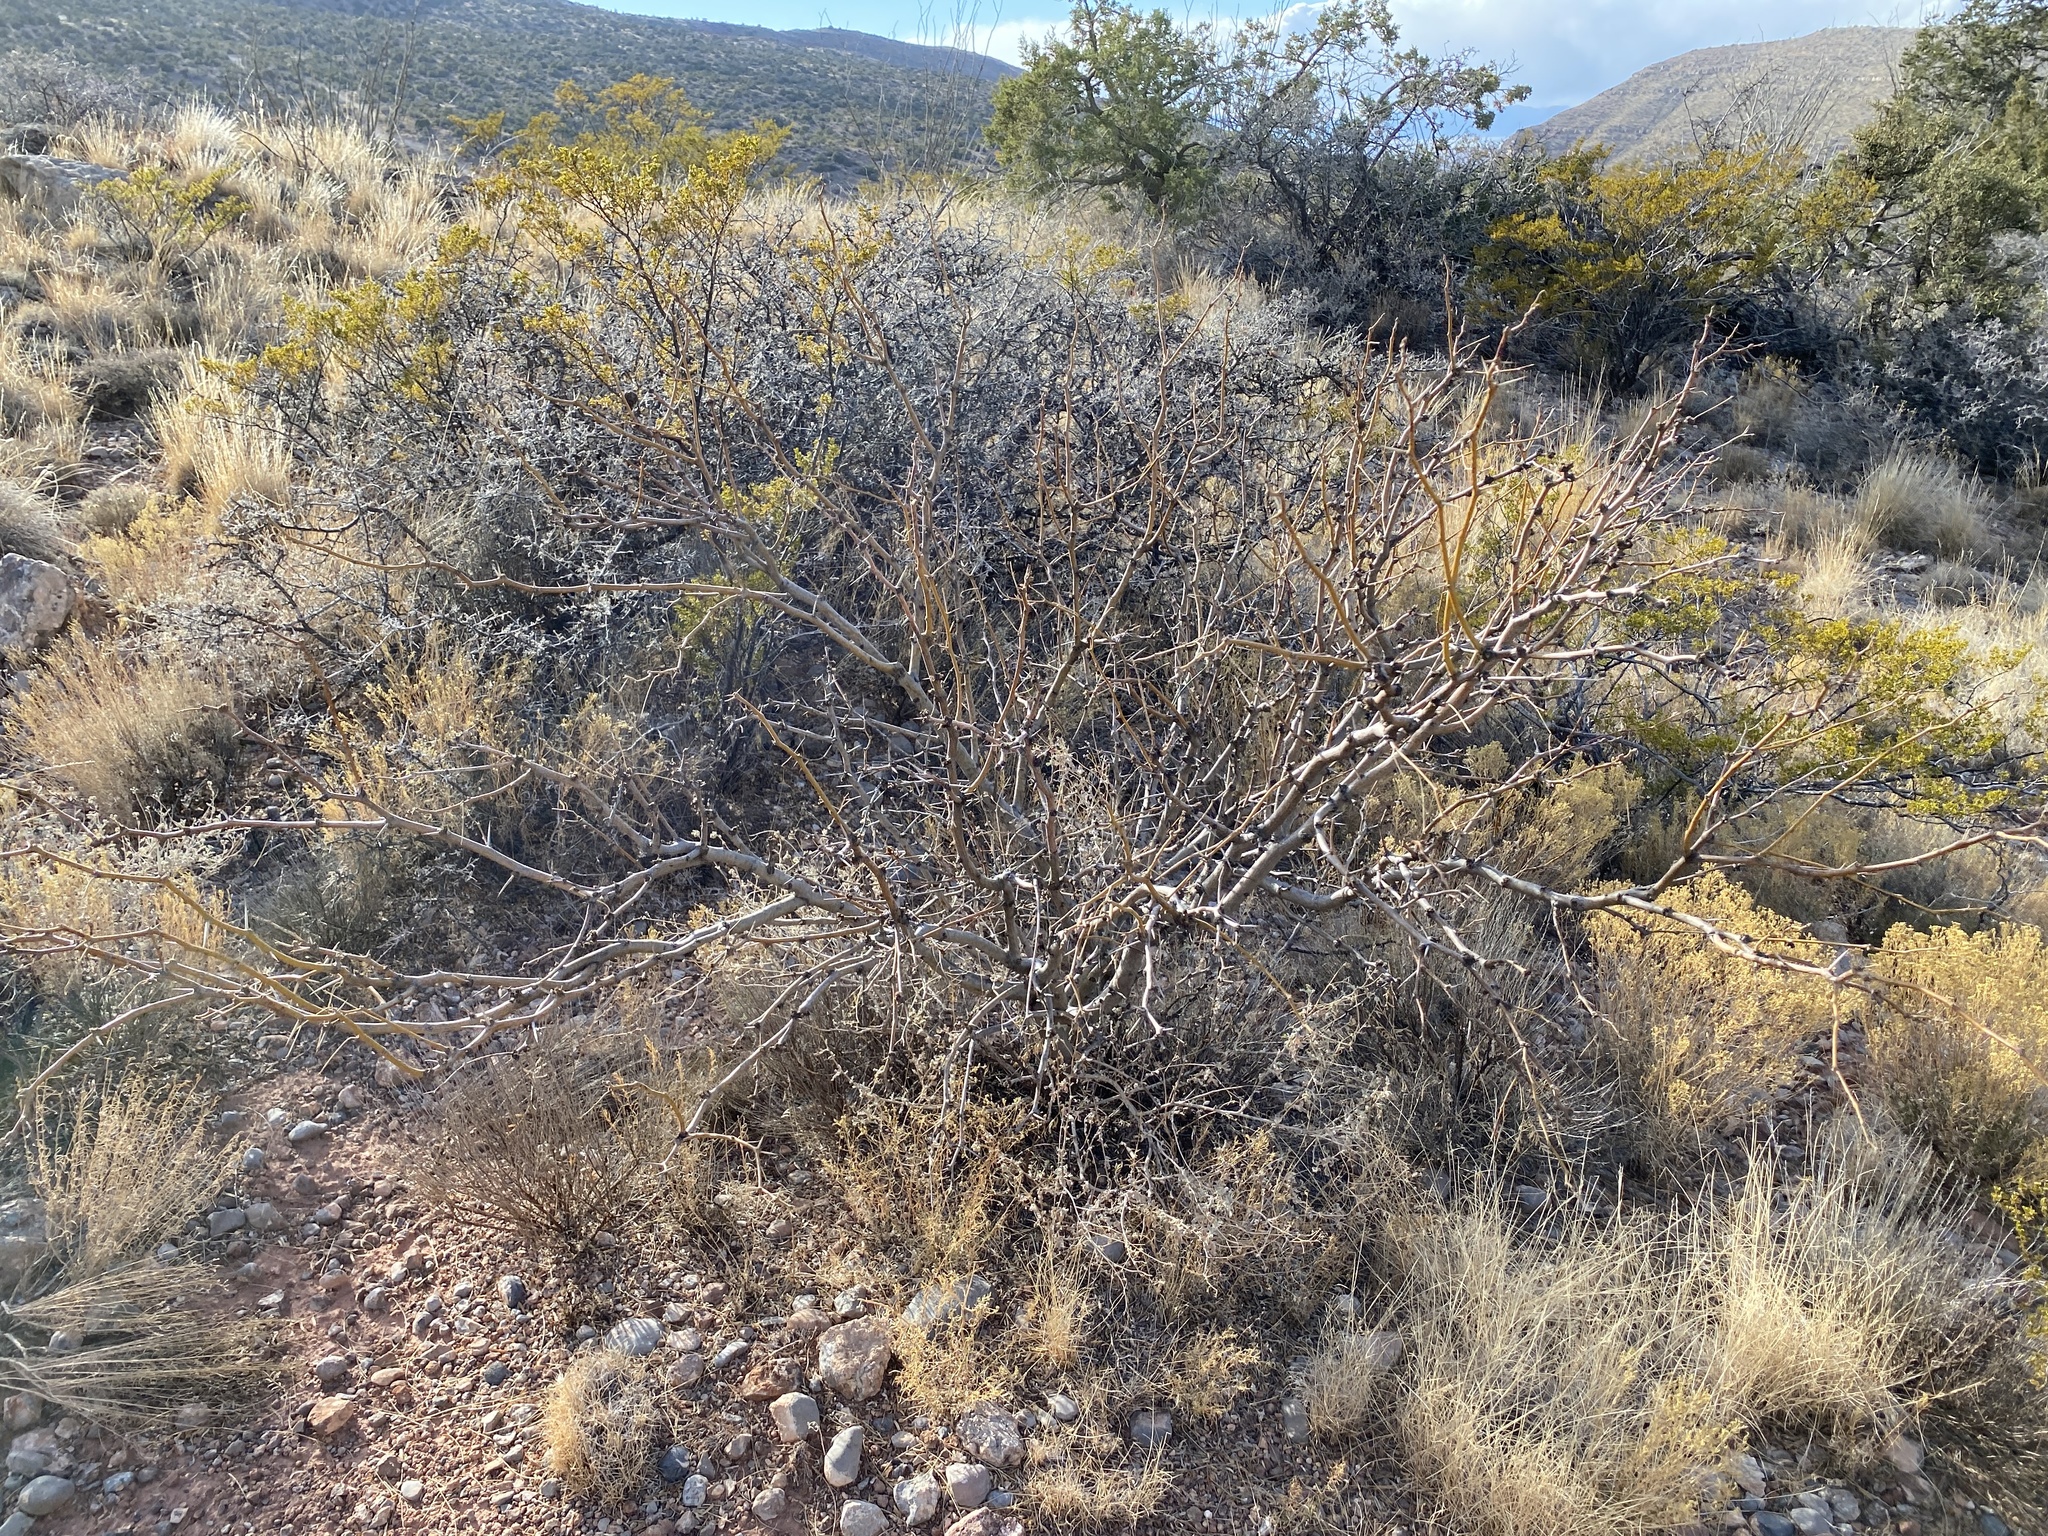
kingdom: Plantae
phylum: Tracheophyta
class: Magnoliopsida
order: Fabales
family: Fabaceae
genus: Prosopis
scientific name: Prosopis glandulosa
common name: Honey mesquite
